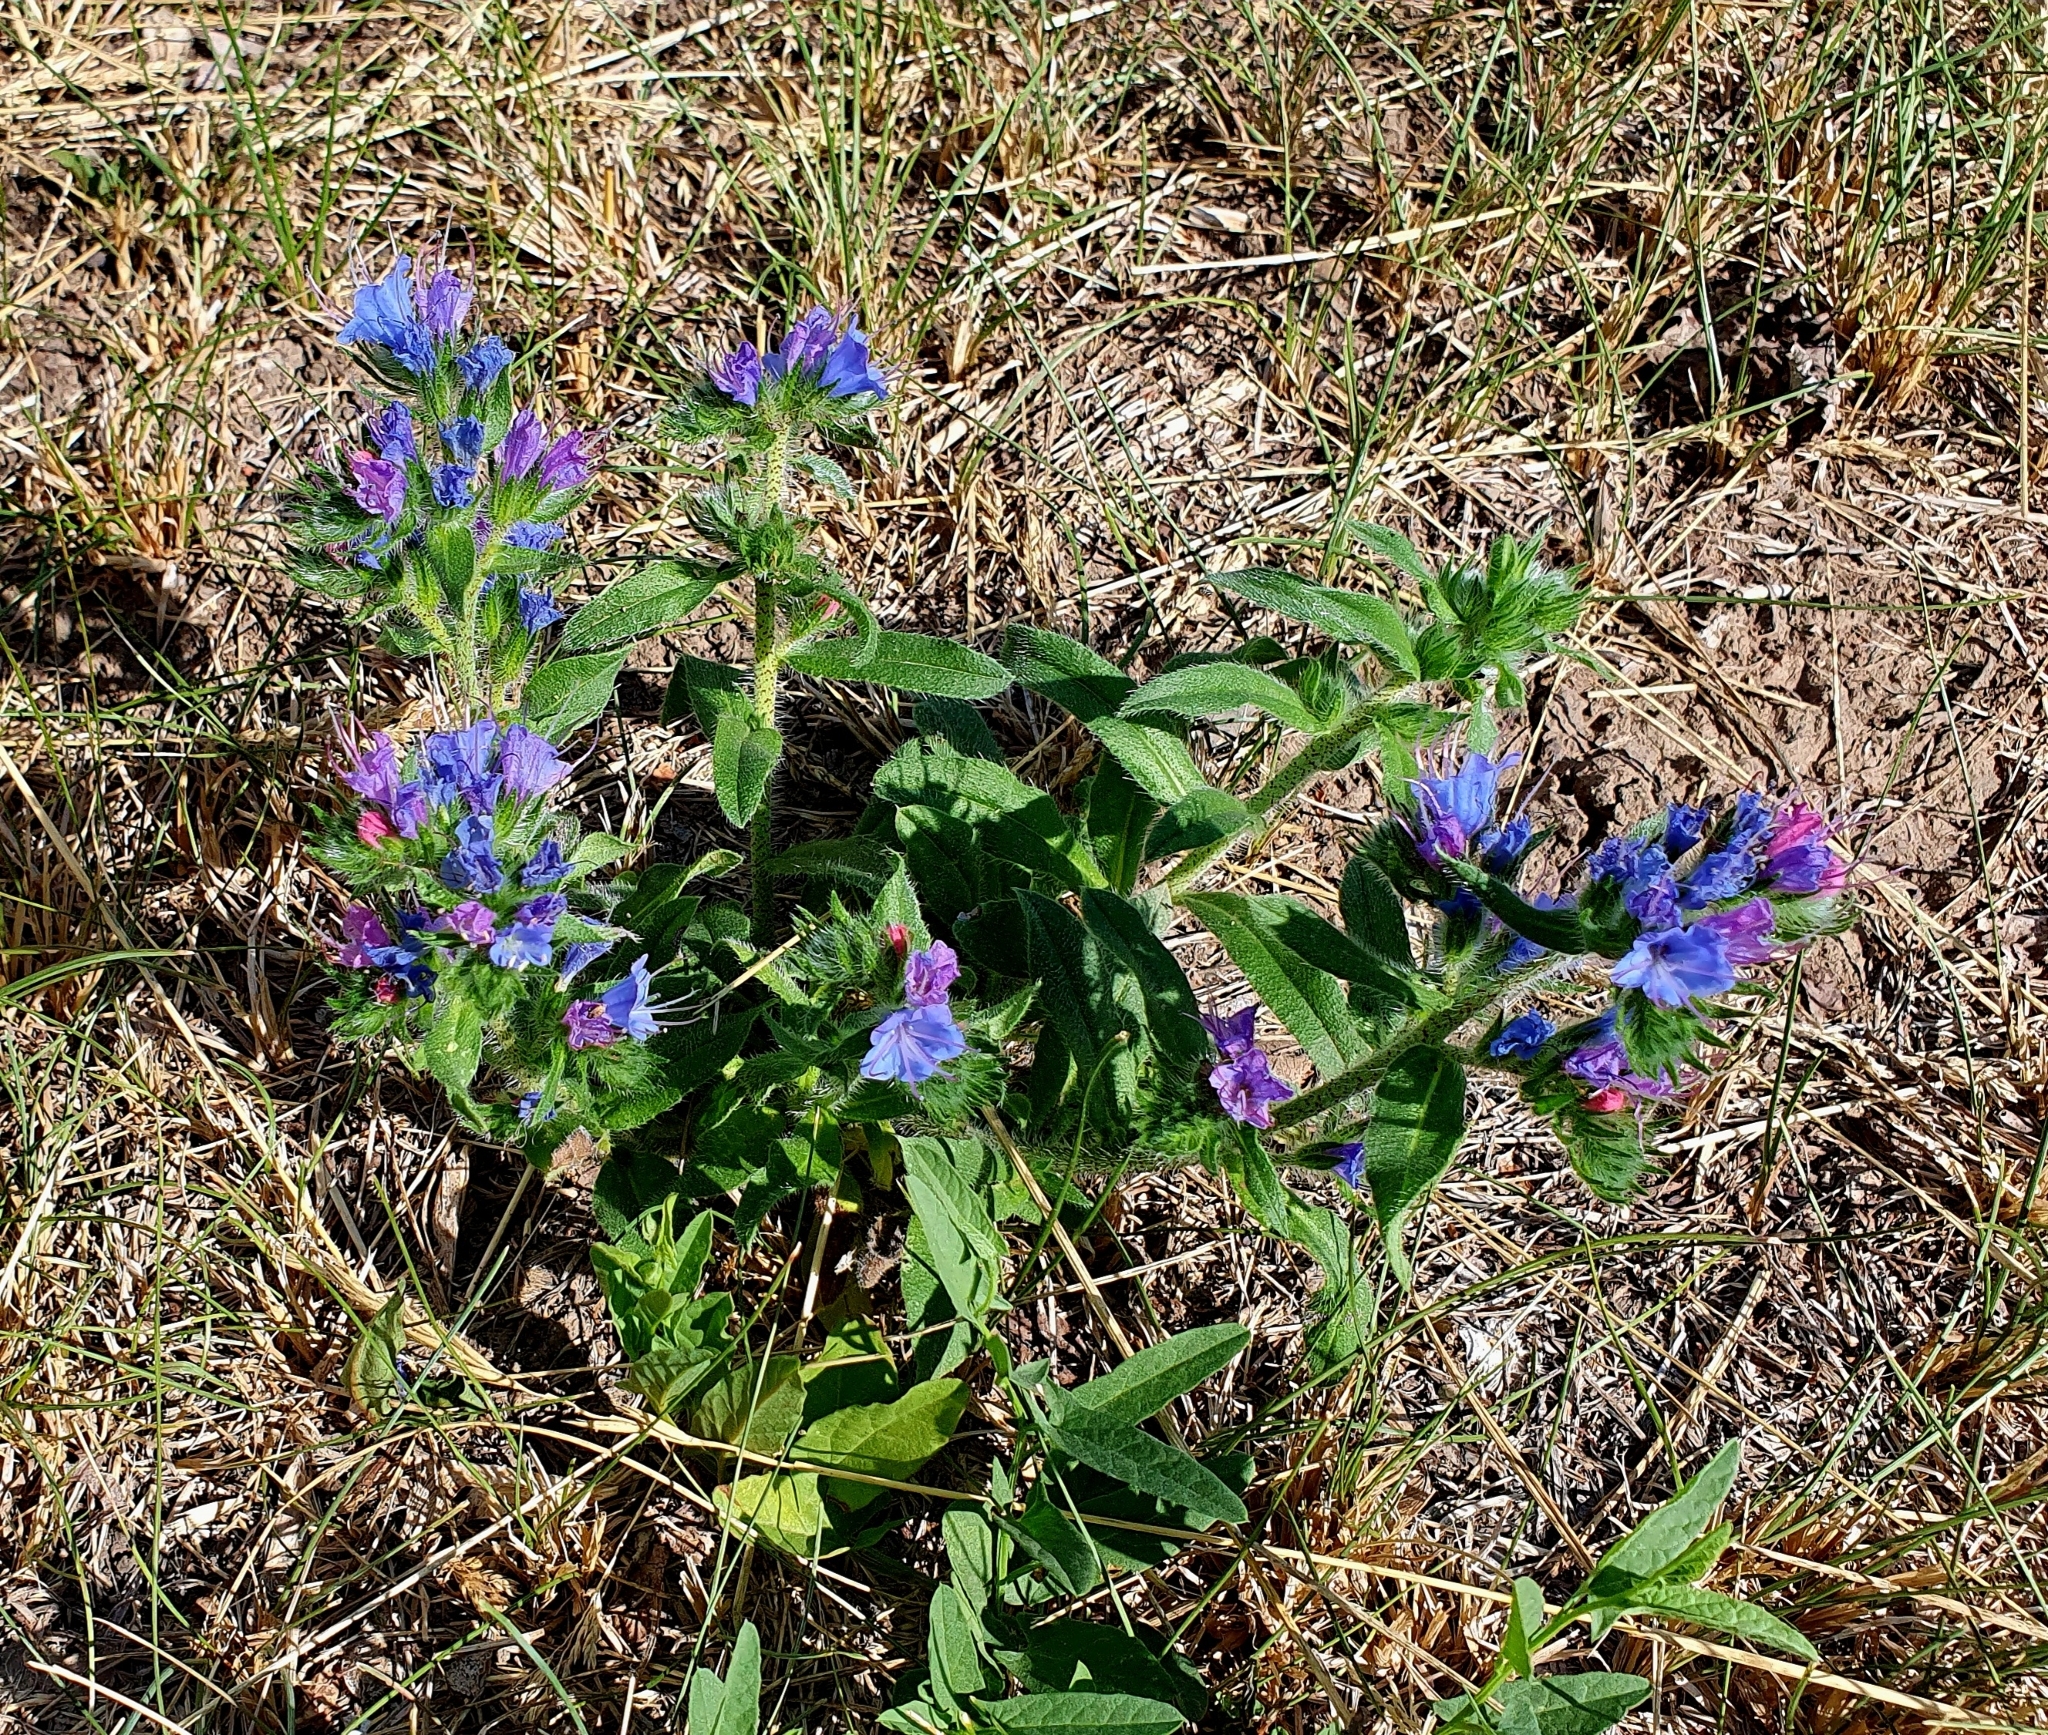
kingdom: Plantae
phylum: Tracheophyta
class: Magnoliopsida
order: Boraginales
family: Boraginaceae
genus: Echium
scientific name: Echium vulgare
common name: Common viper's bugloss
